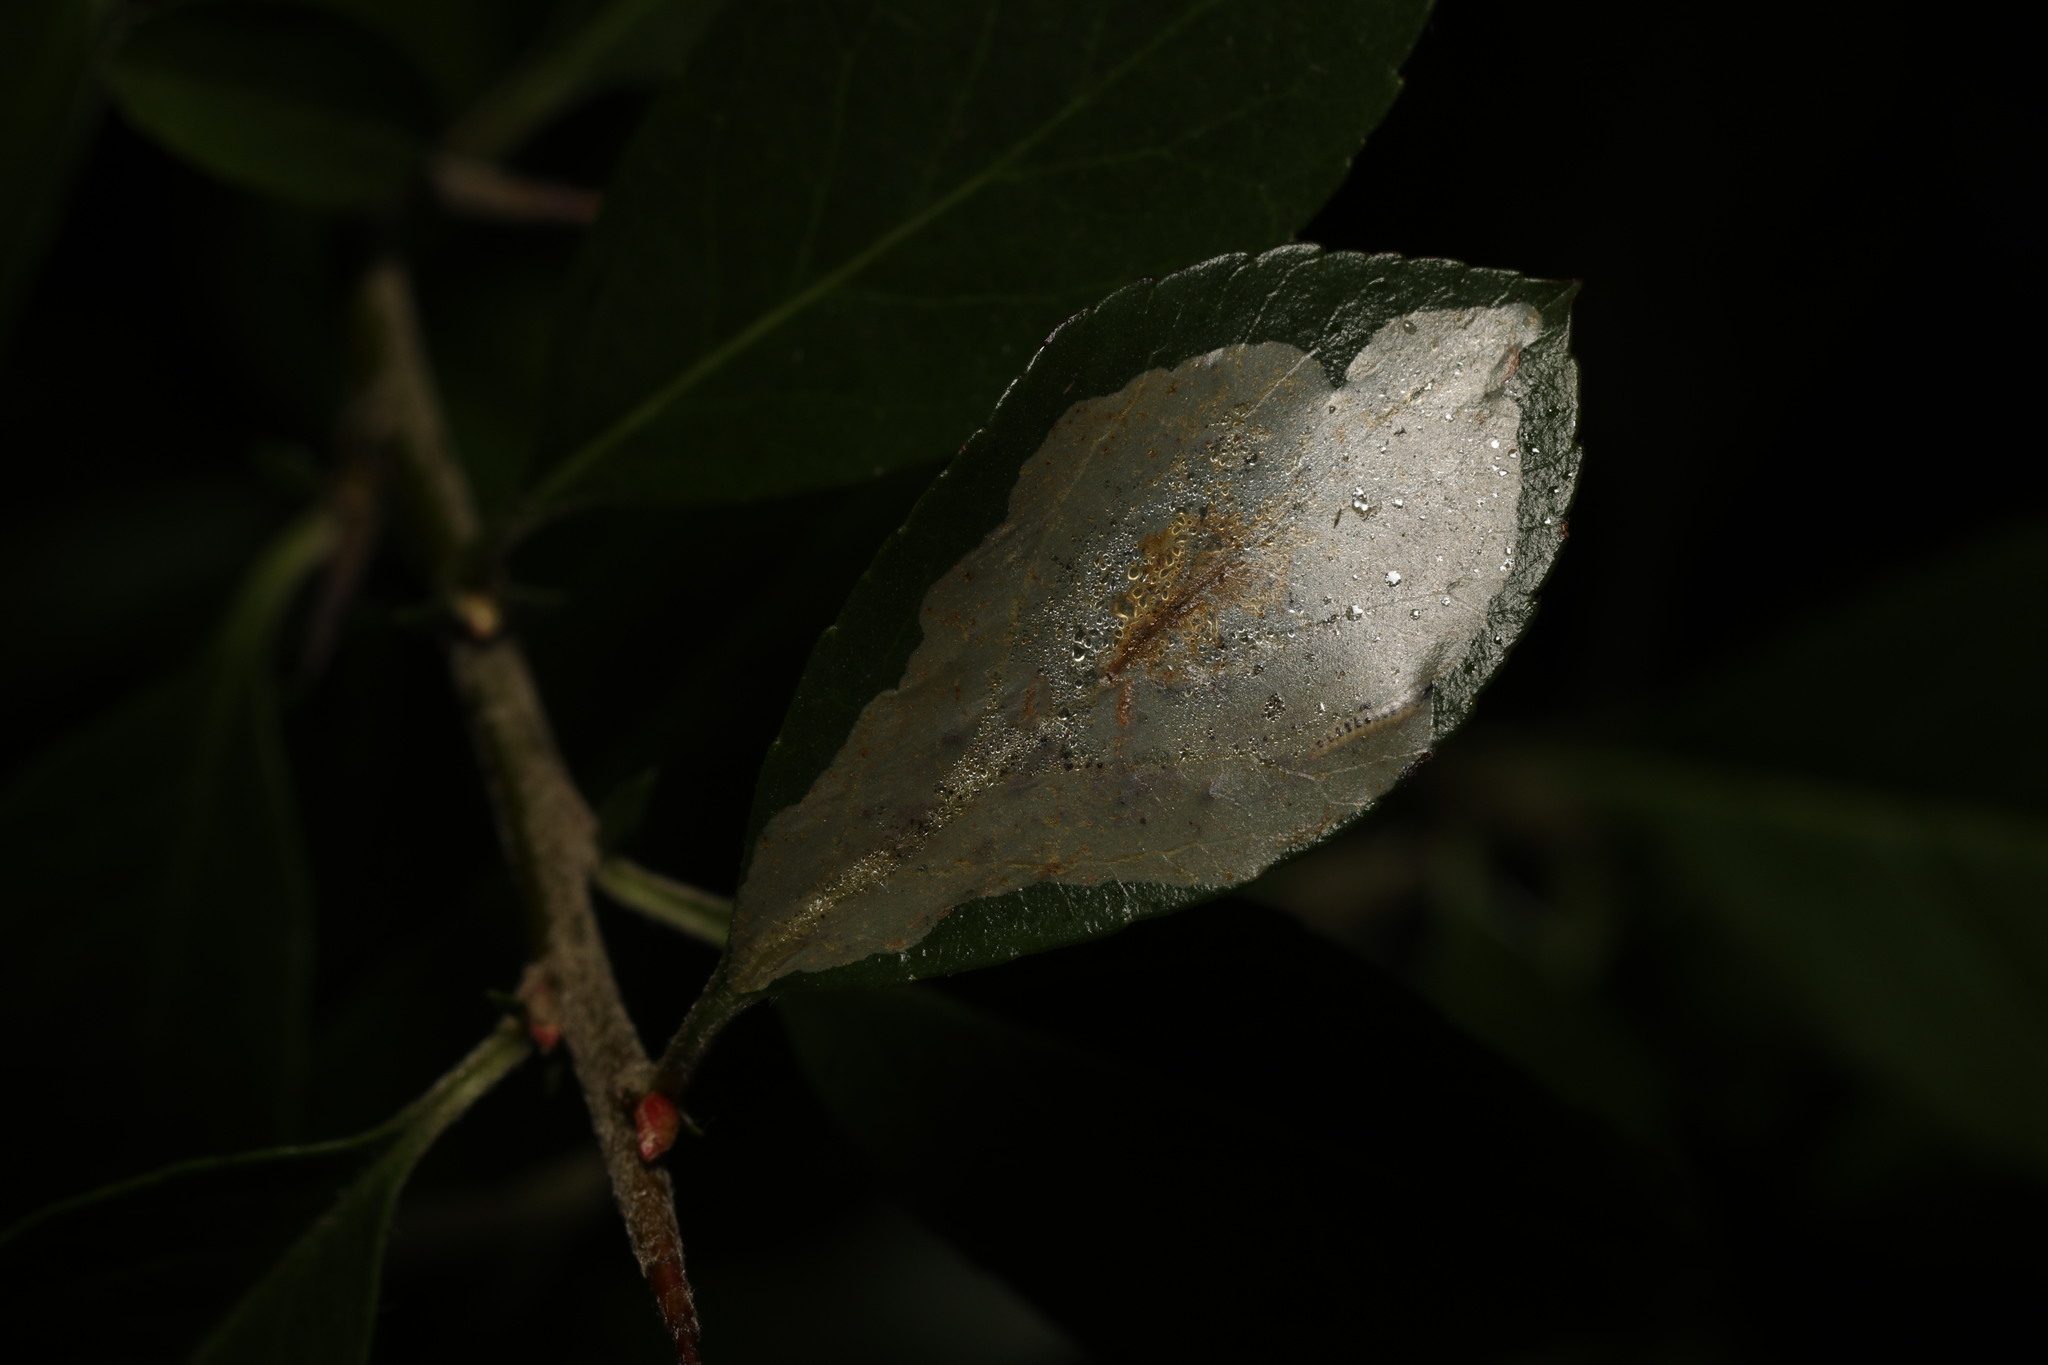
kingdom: Animalia
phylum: Arthropoda
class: Insecta
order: Lepidoptera
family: Gracillariidae
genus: Phyllonorycter
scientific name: Phyllonorycter leucographella
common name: Firethorn leaf-miner
